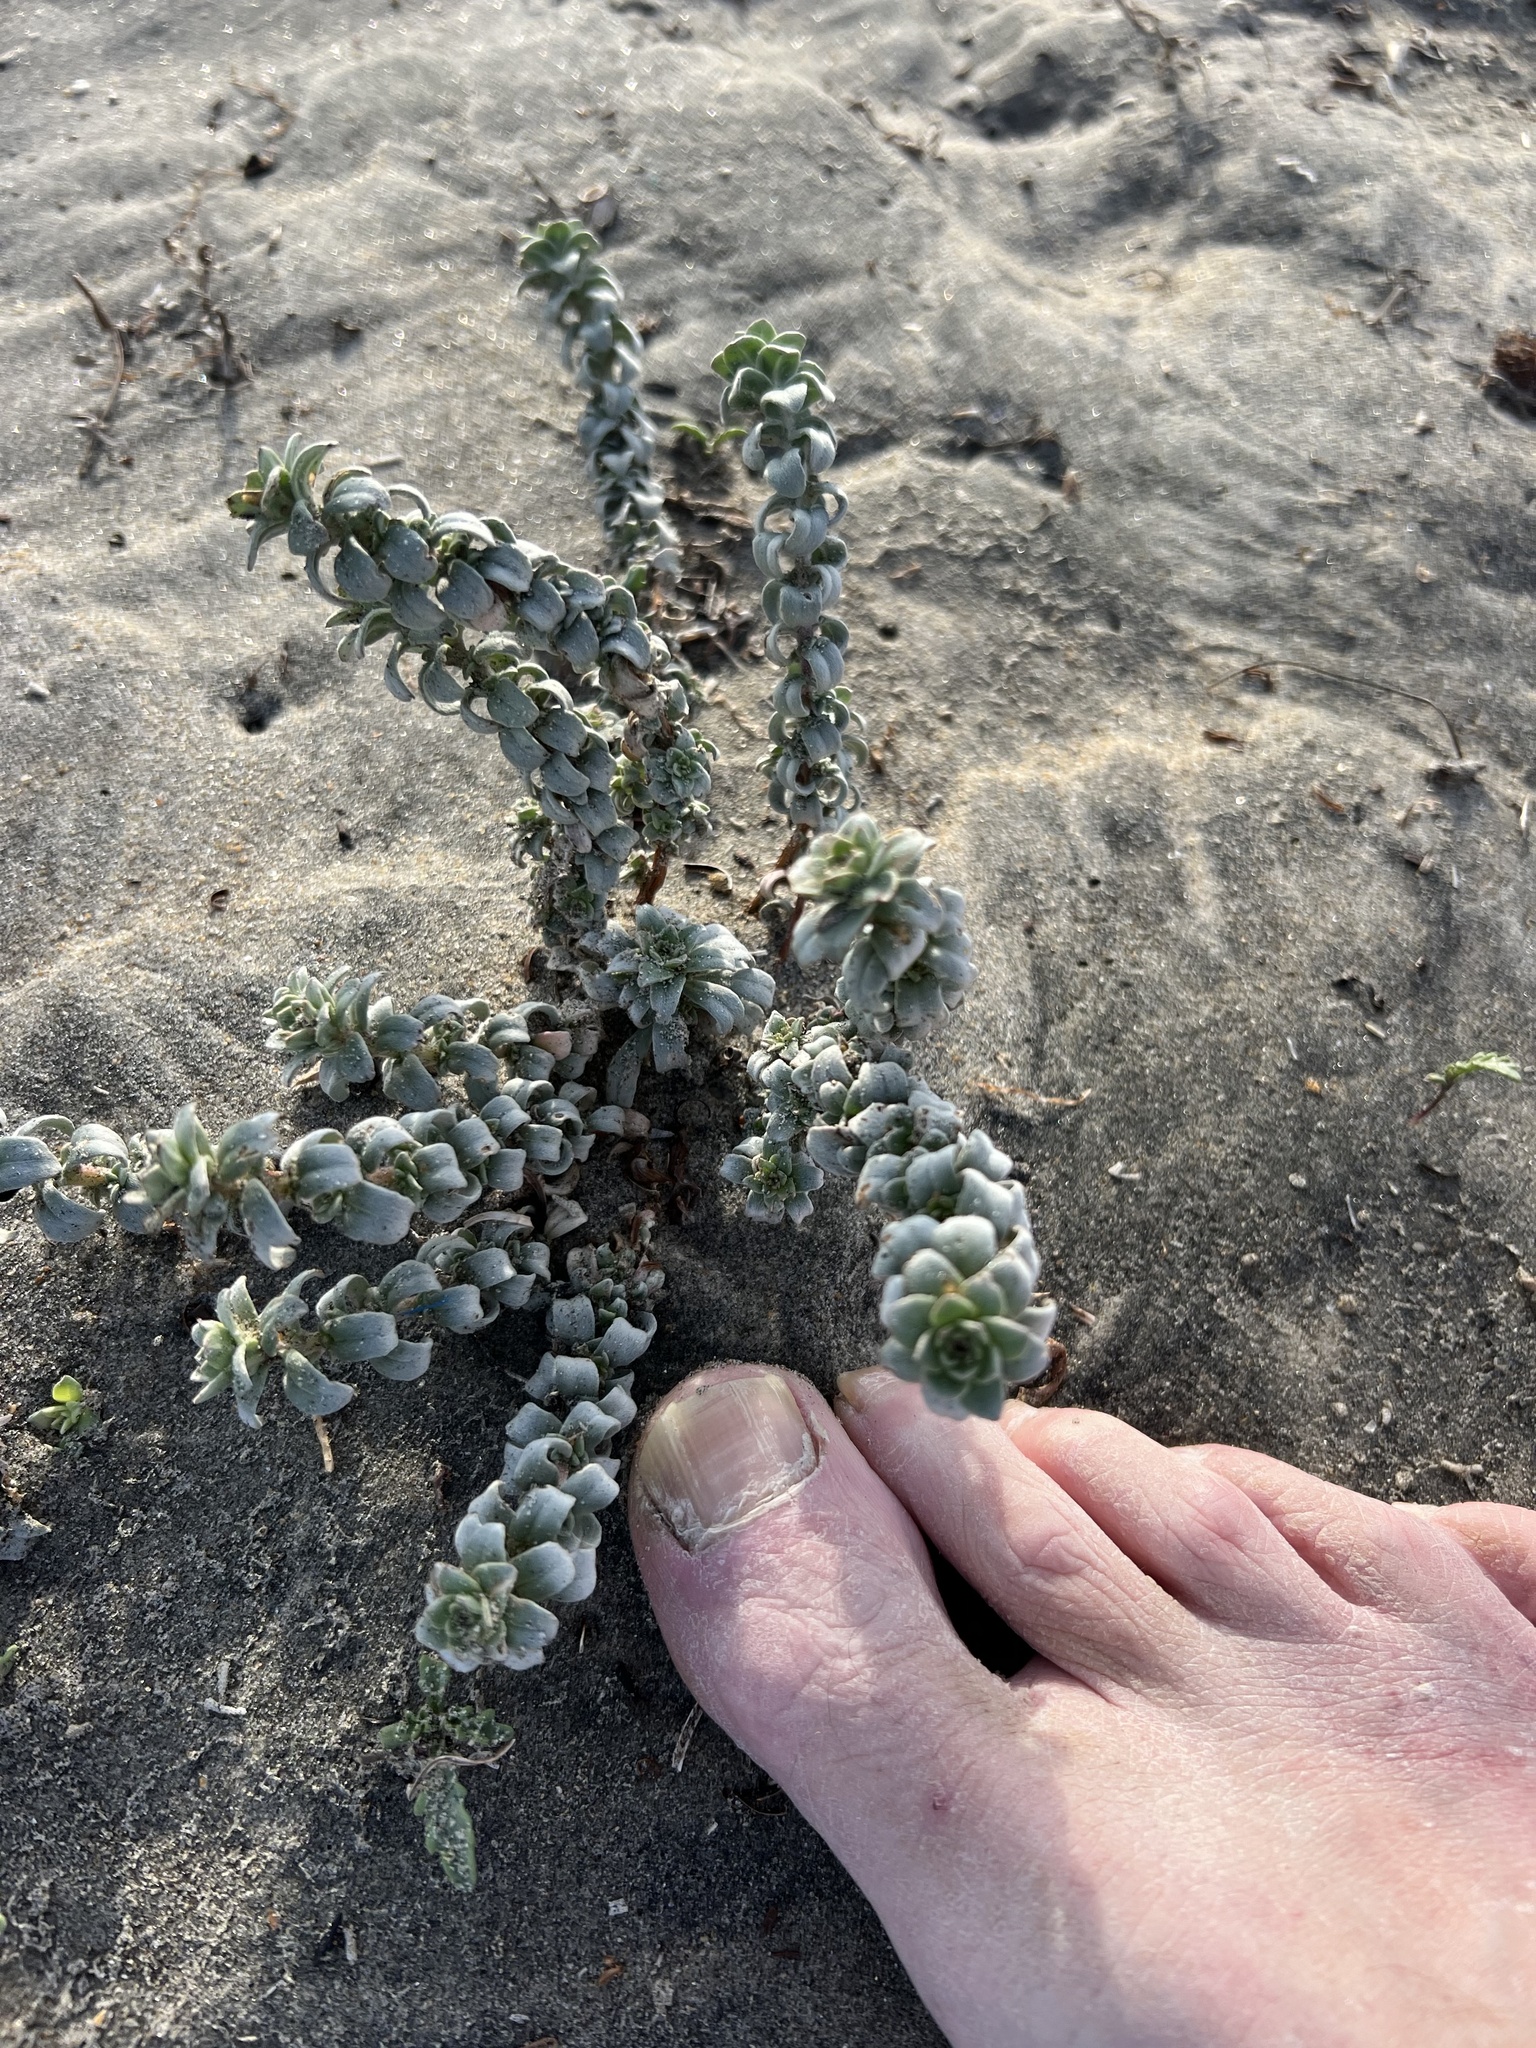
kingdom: Plantae
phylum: Tracheophyta
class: Magnoliopsida
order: Myrtales
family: Onagraceae
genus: Camissoniopsis
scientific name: Camissoniopsis cheiranthifolia
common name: Beach suncup
